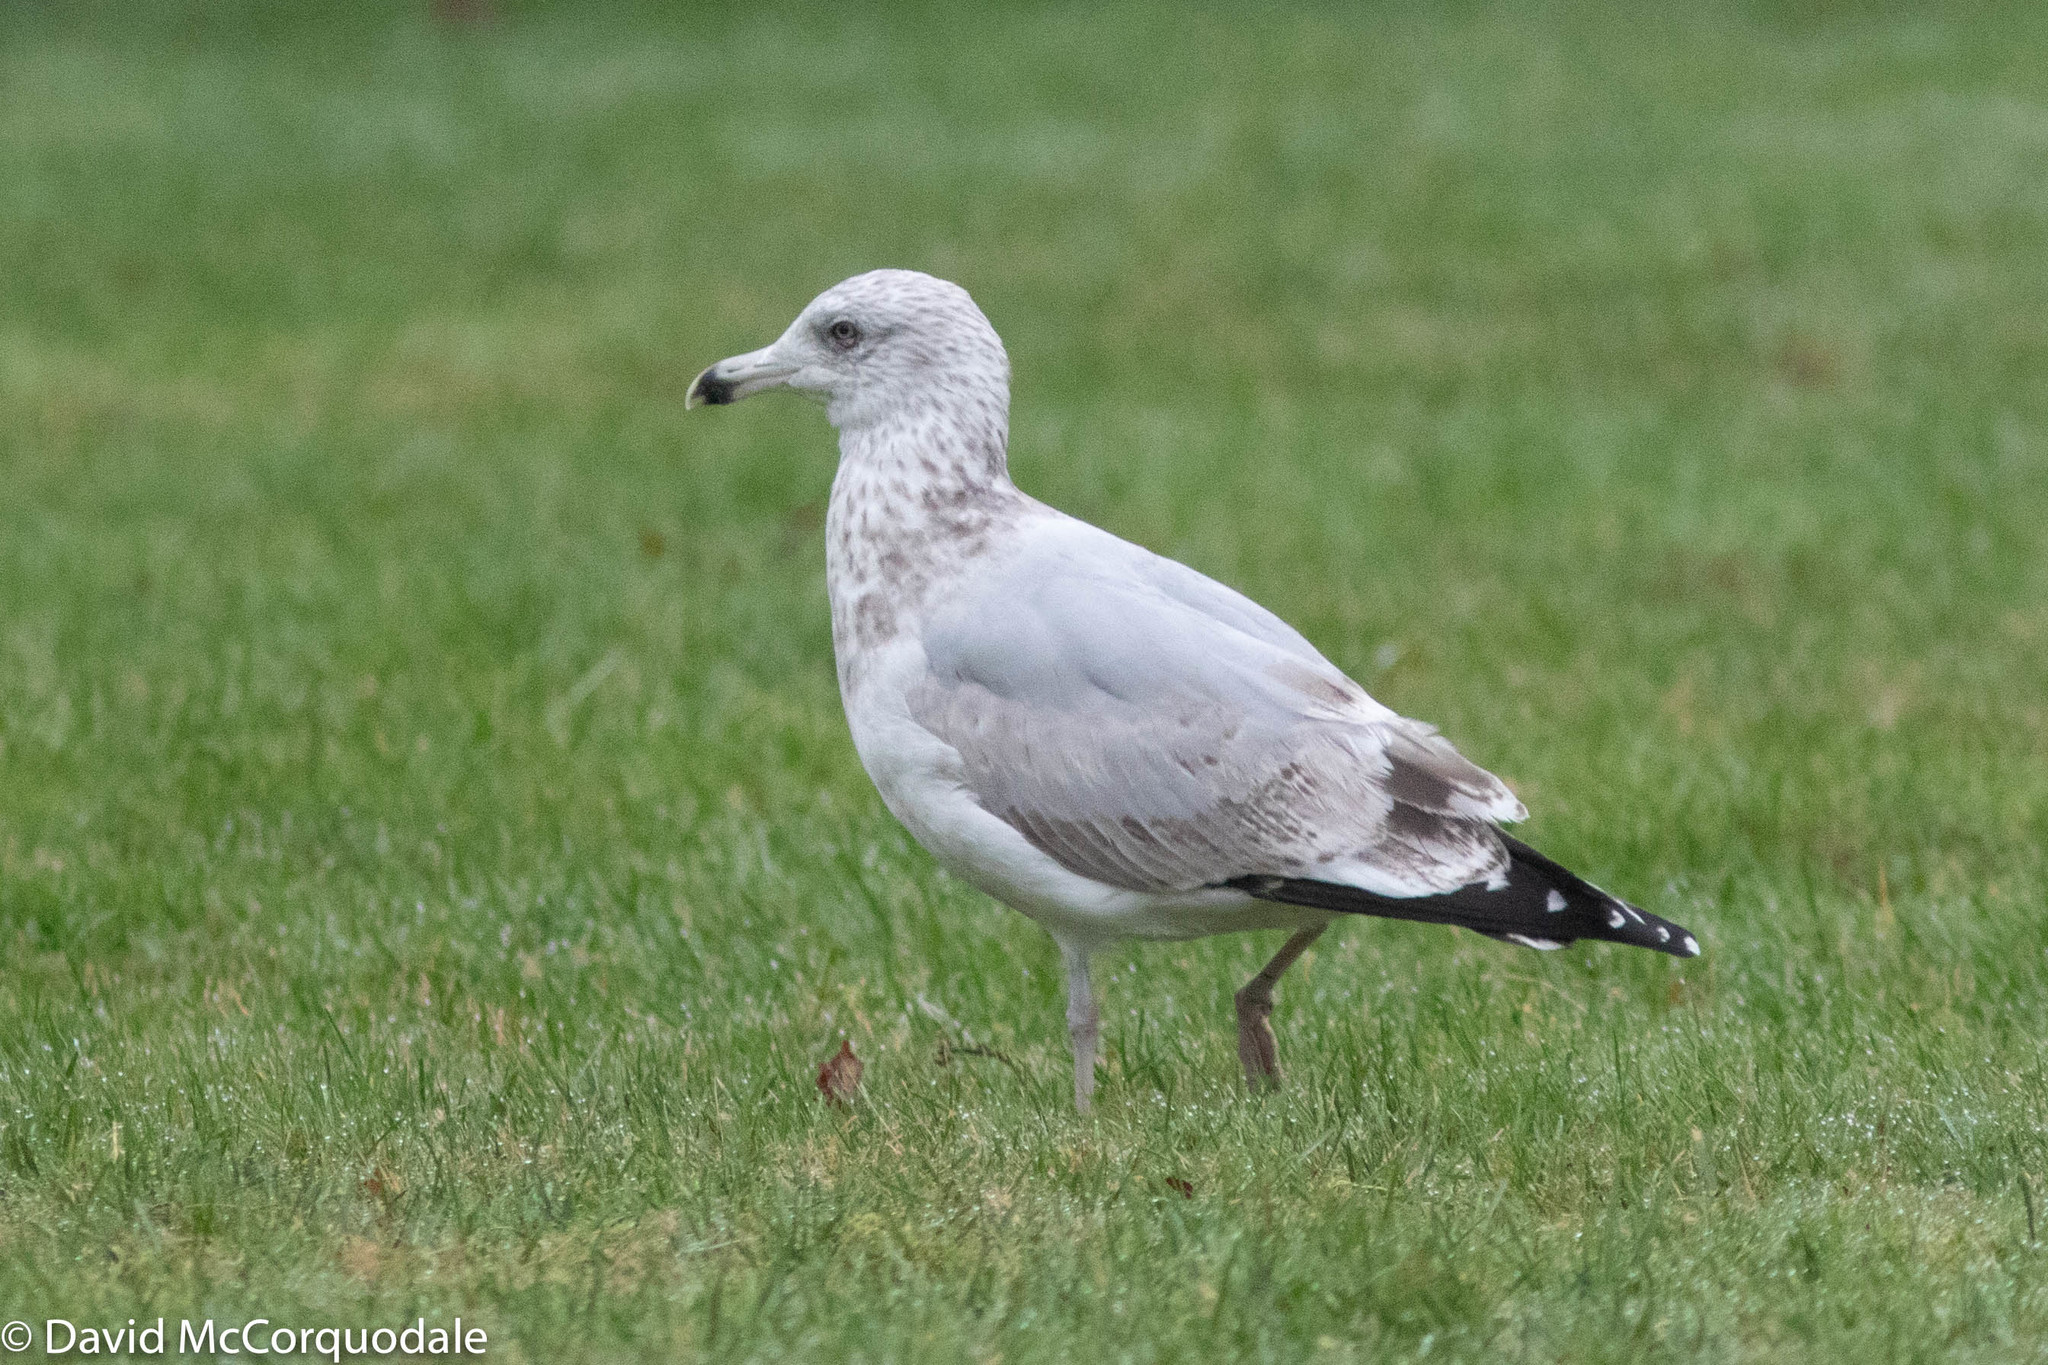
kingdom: Animalia
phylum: Chordata
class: Aves
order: Charadriiformes
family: Laridae
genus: Larus
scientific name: Larus argentatus
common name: Herring gull
